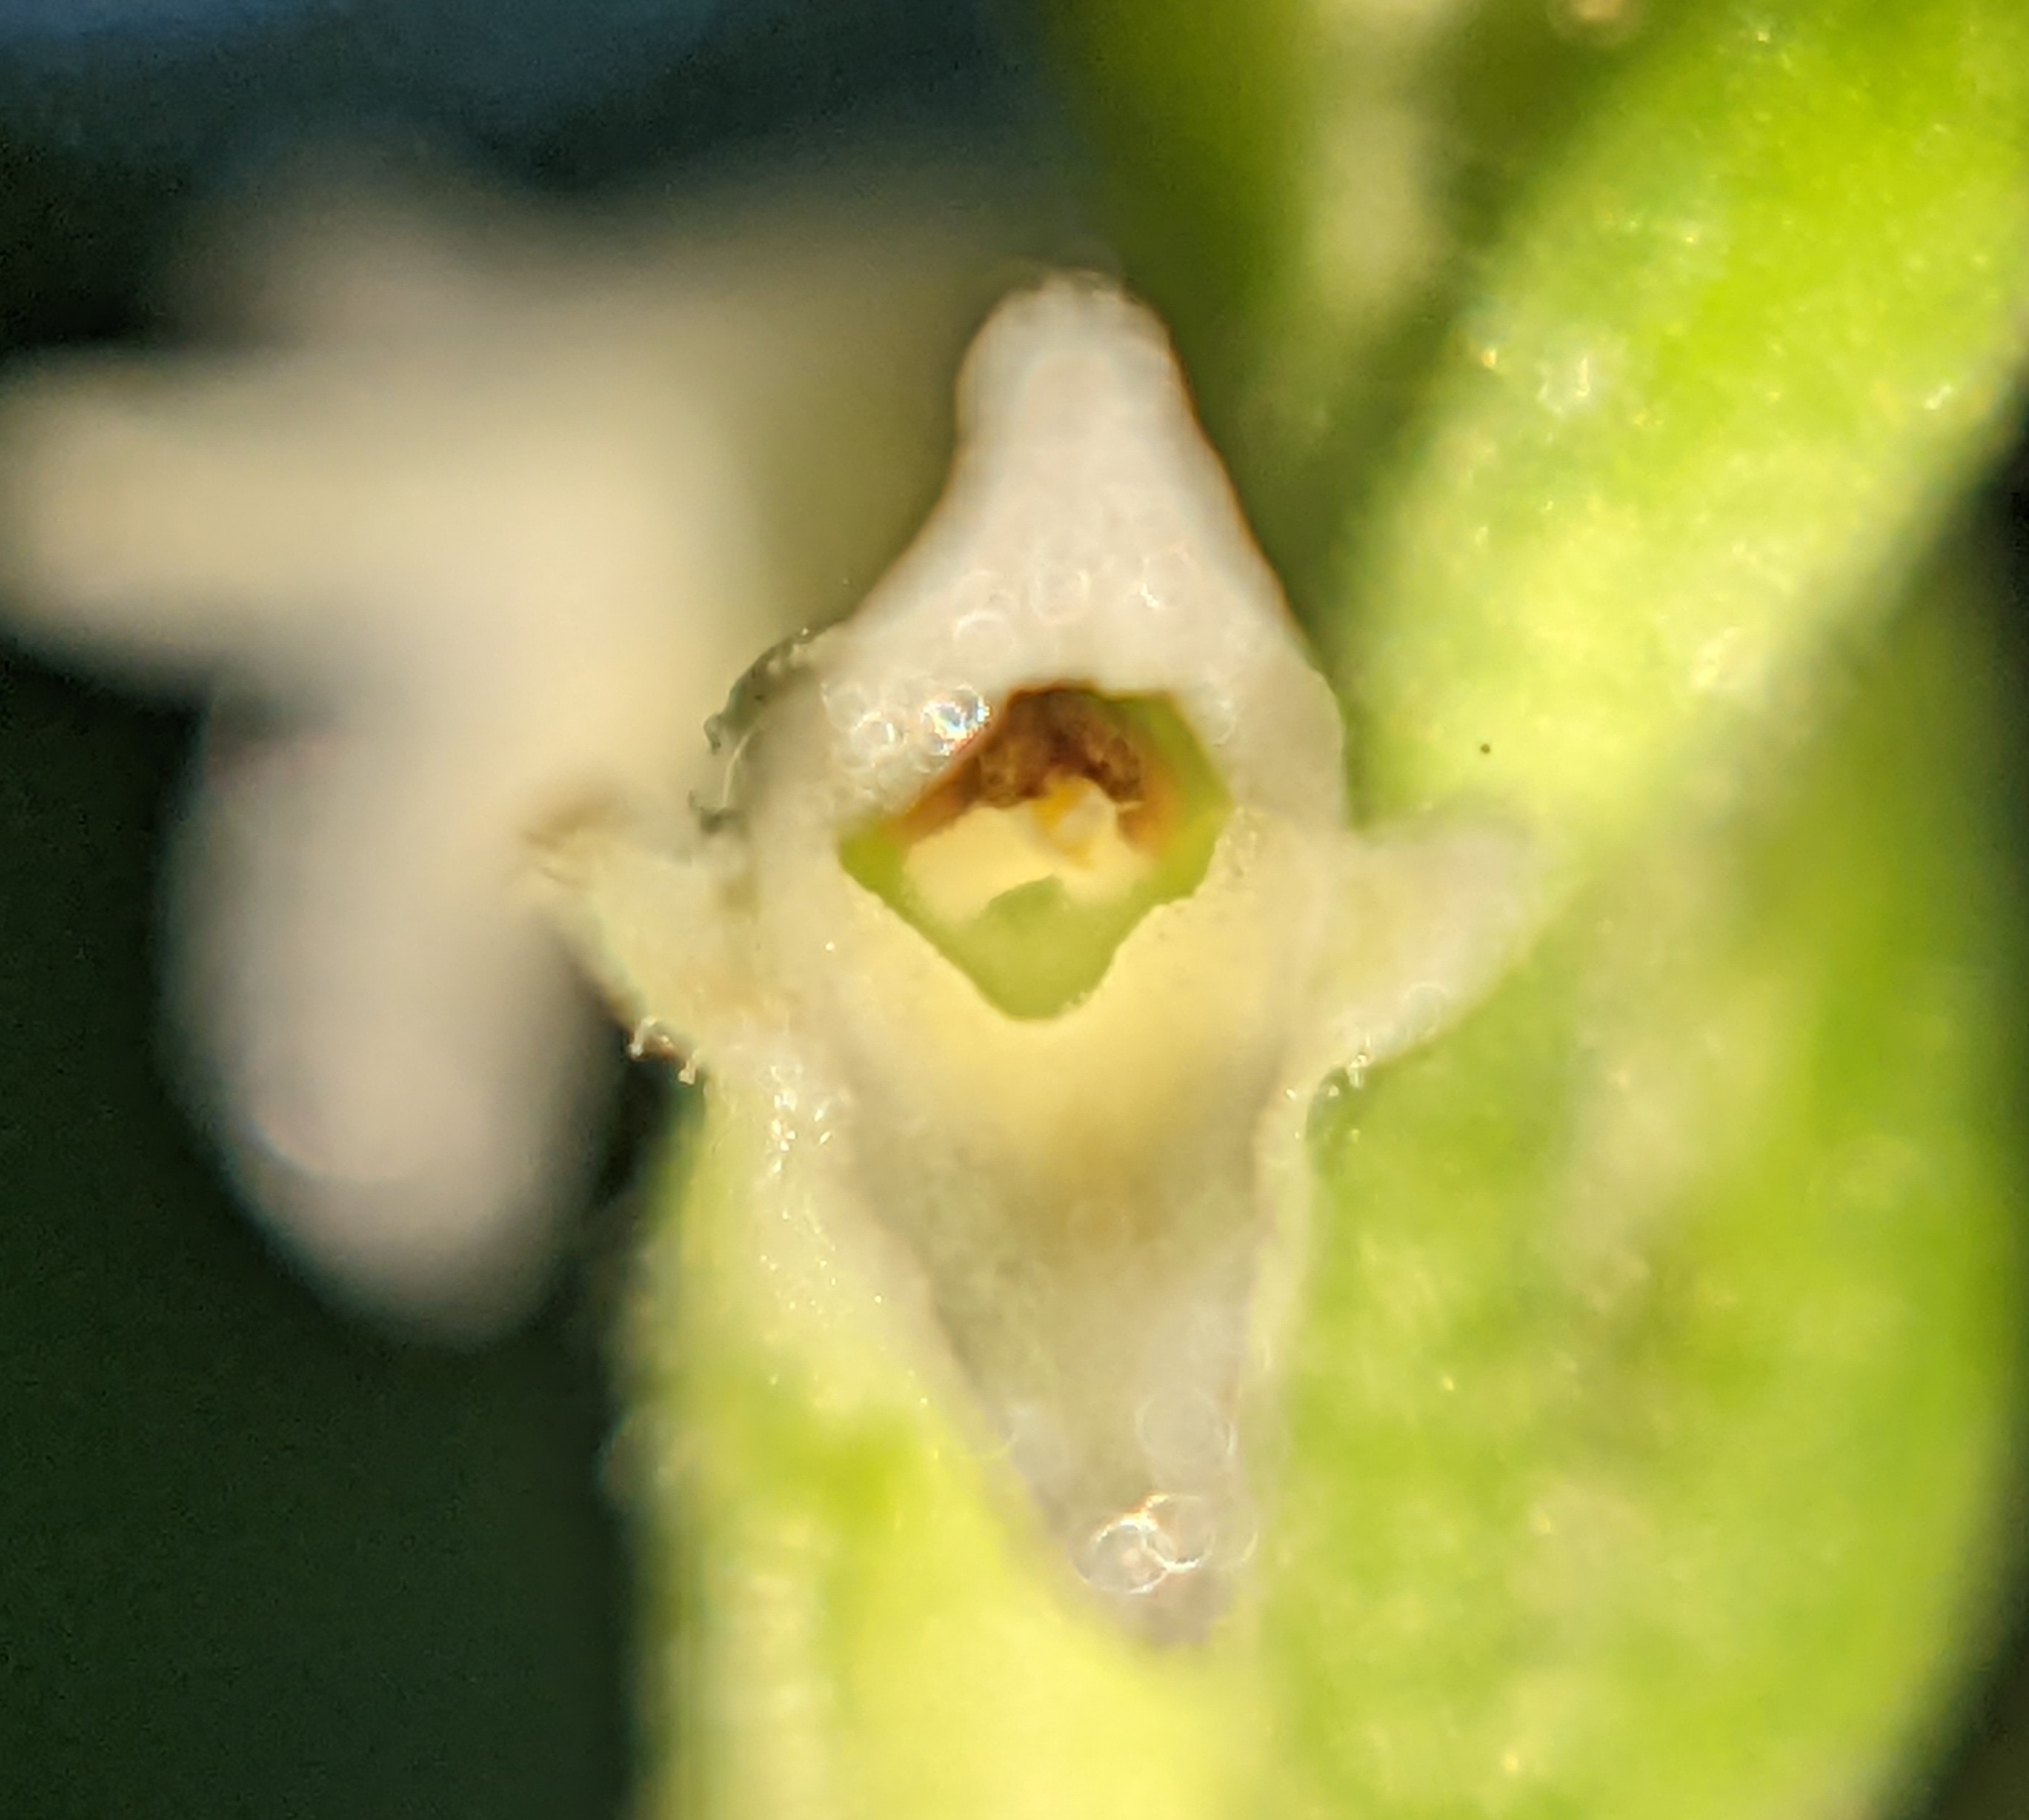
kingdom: Plantae
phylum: Tracheophyta
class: Liliopsida
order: Asparagales
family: Orchidaceae
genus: Spiranthes
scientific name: Spiranthes ovalis
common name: October ladies'-tresses
